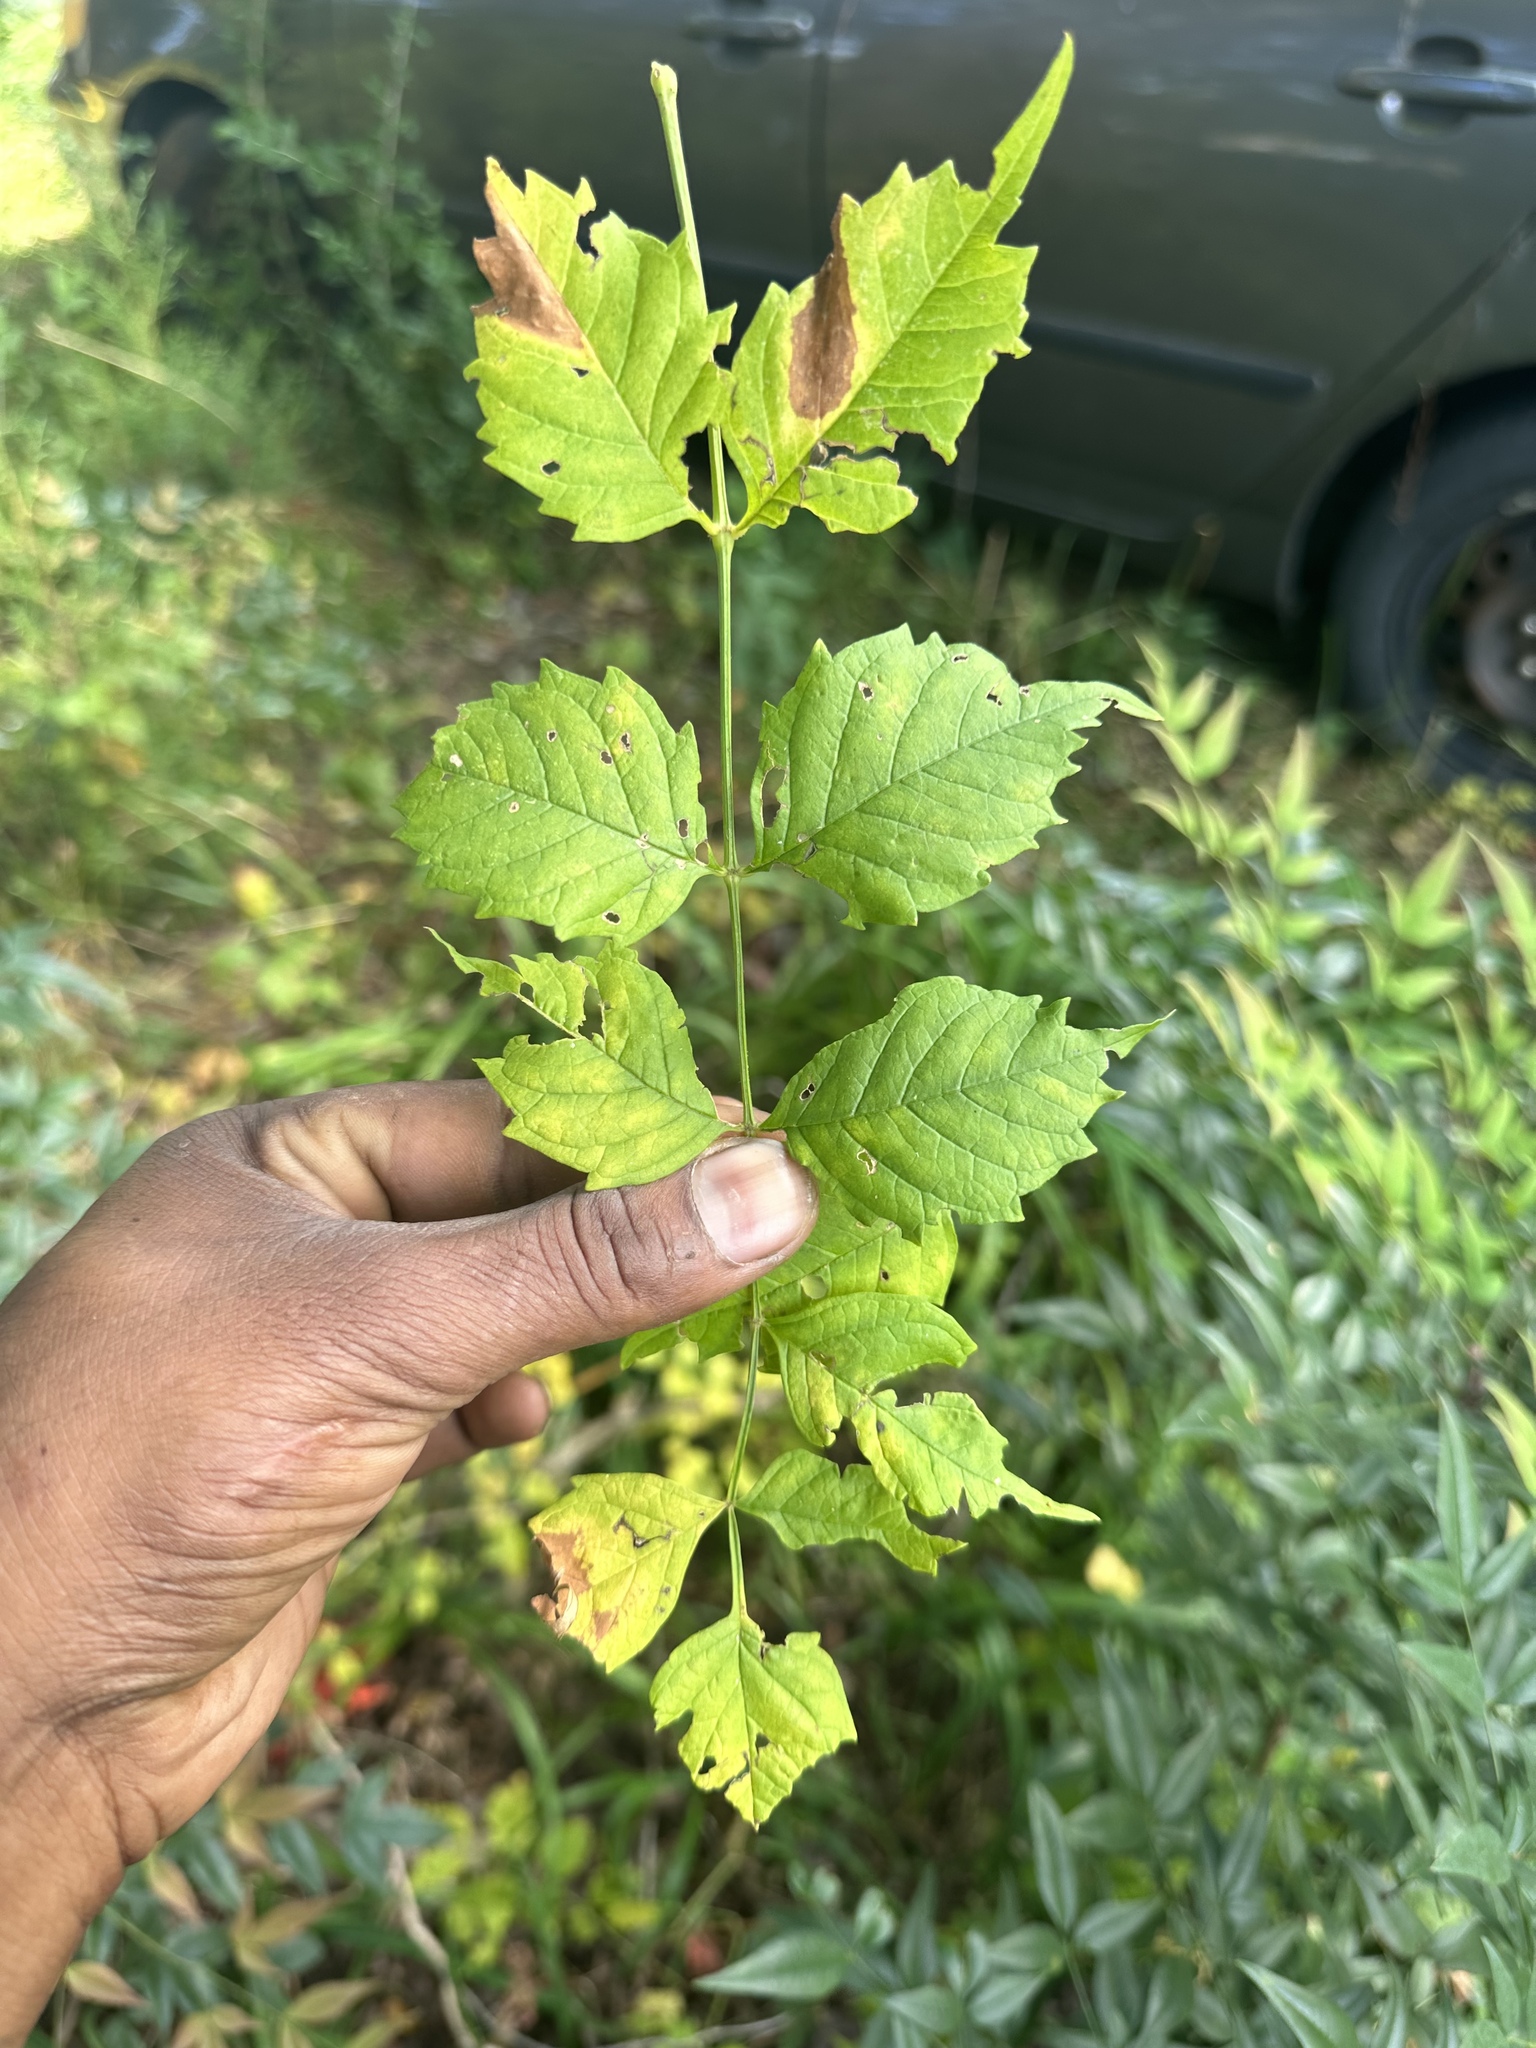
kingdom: Plantae
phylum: Tracheophyta
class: Magnoliopsida
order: Lamiales
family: Bignoniaceae
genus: Campsis
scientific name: Campsis radicans
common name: Trumpet-creeper
